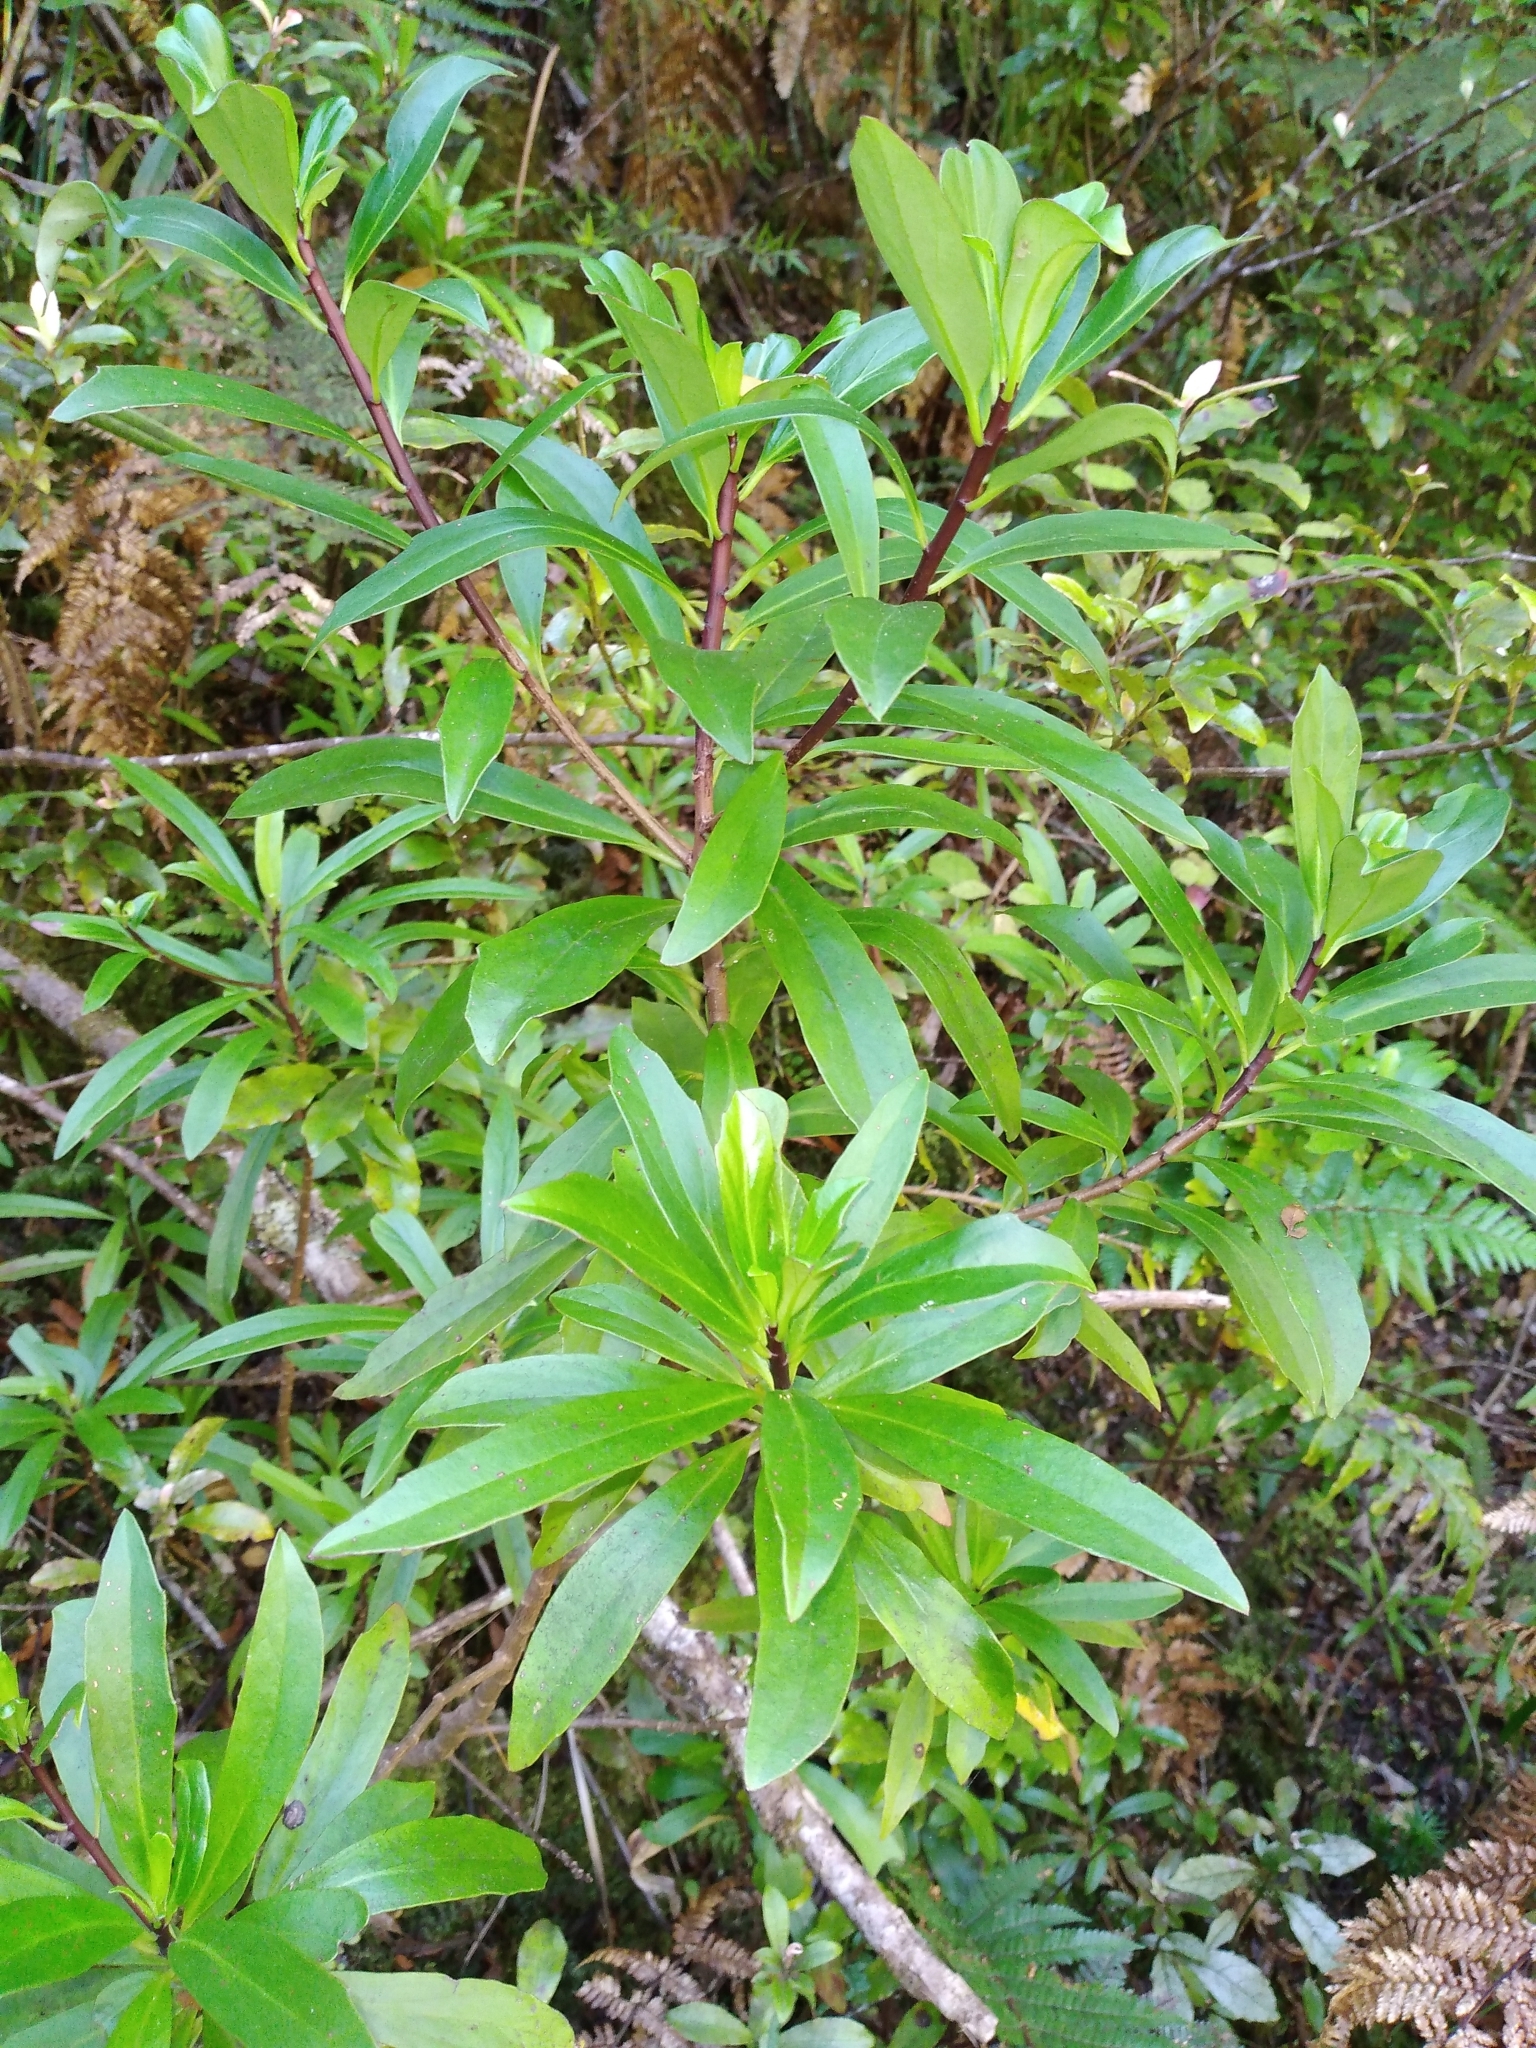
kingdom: Plantae
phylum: Tracheophyta
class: Magnoliopsida
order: Asterales
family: Asteraceae
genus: Brachyglottis
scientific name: Brachyglottis kirkii
